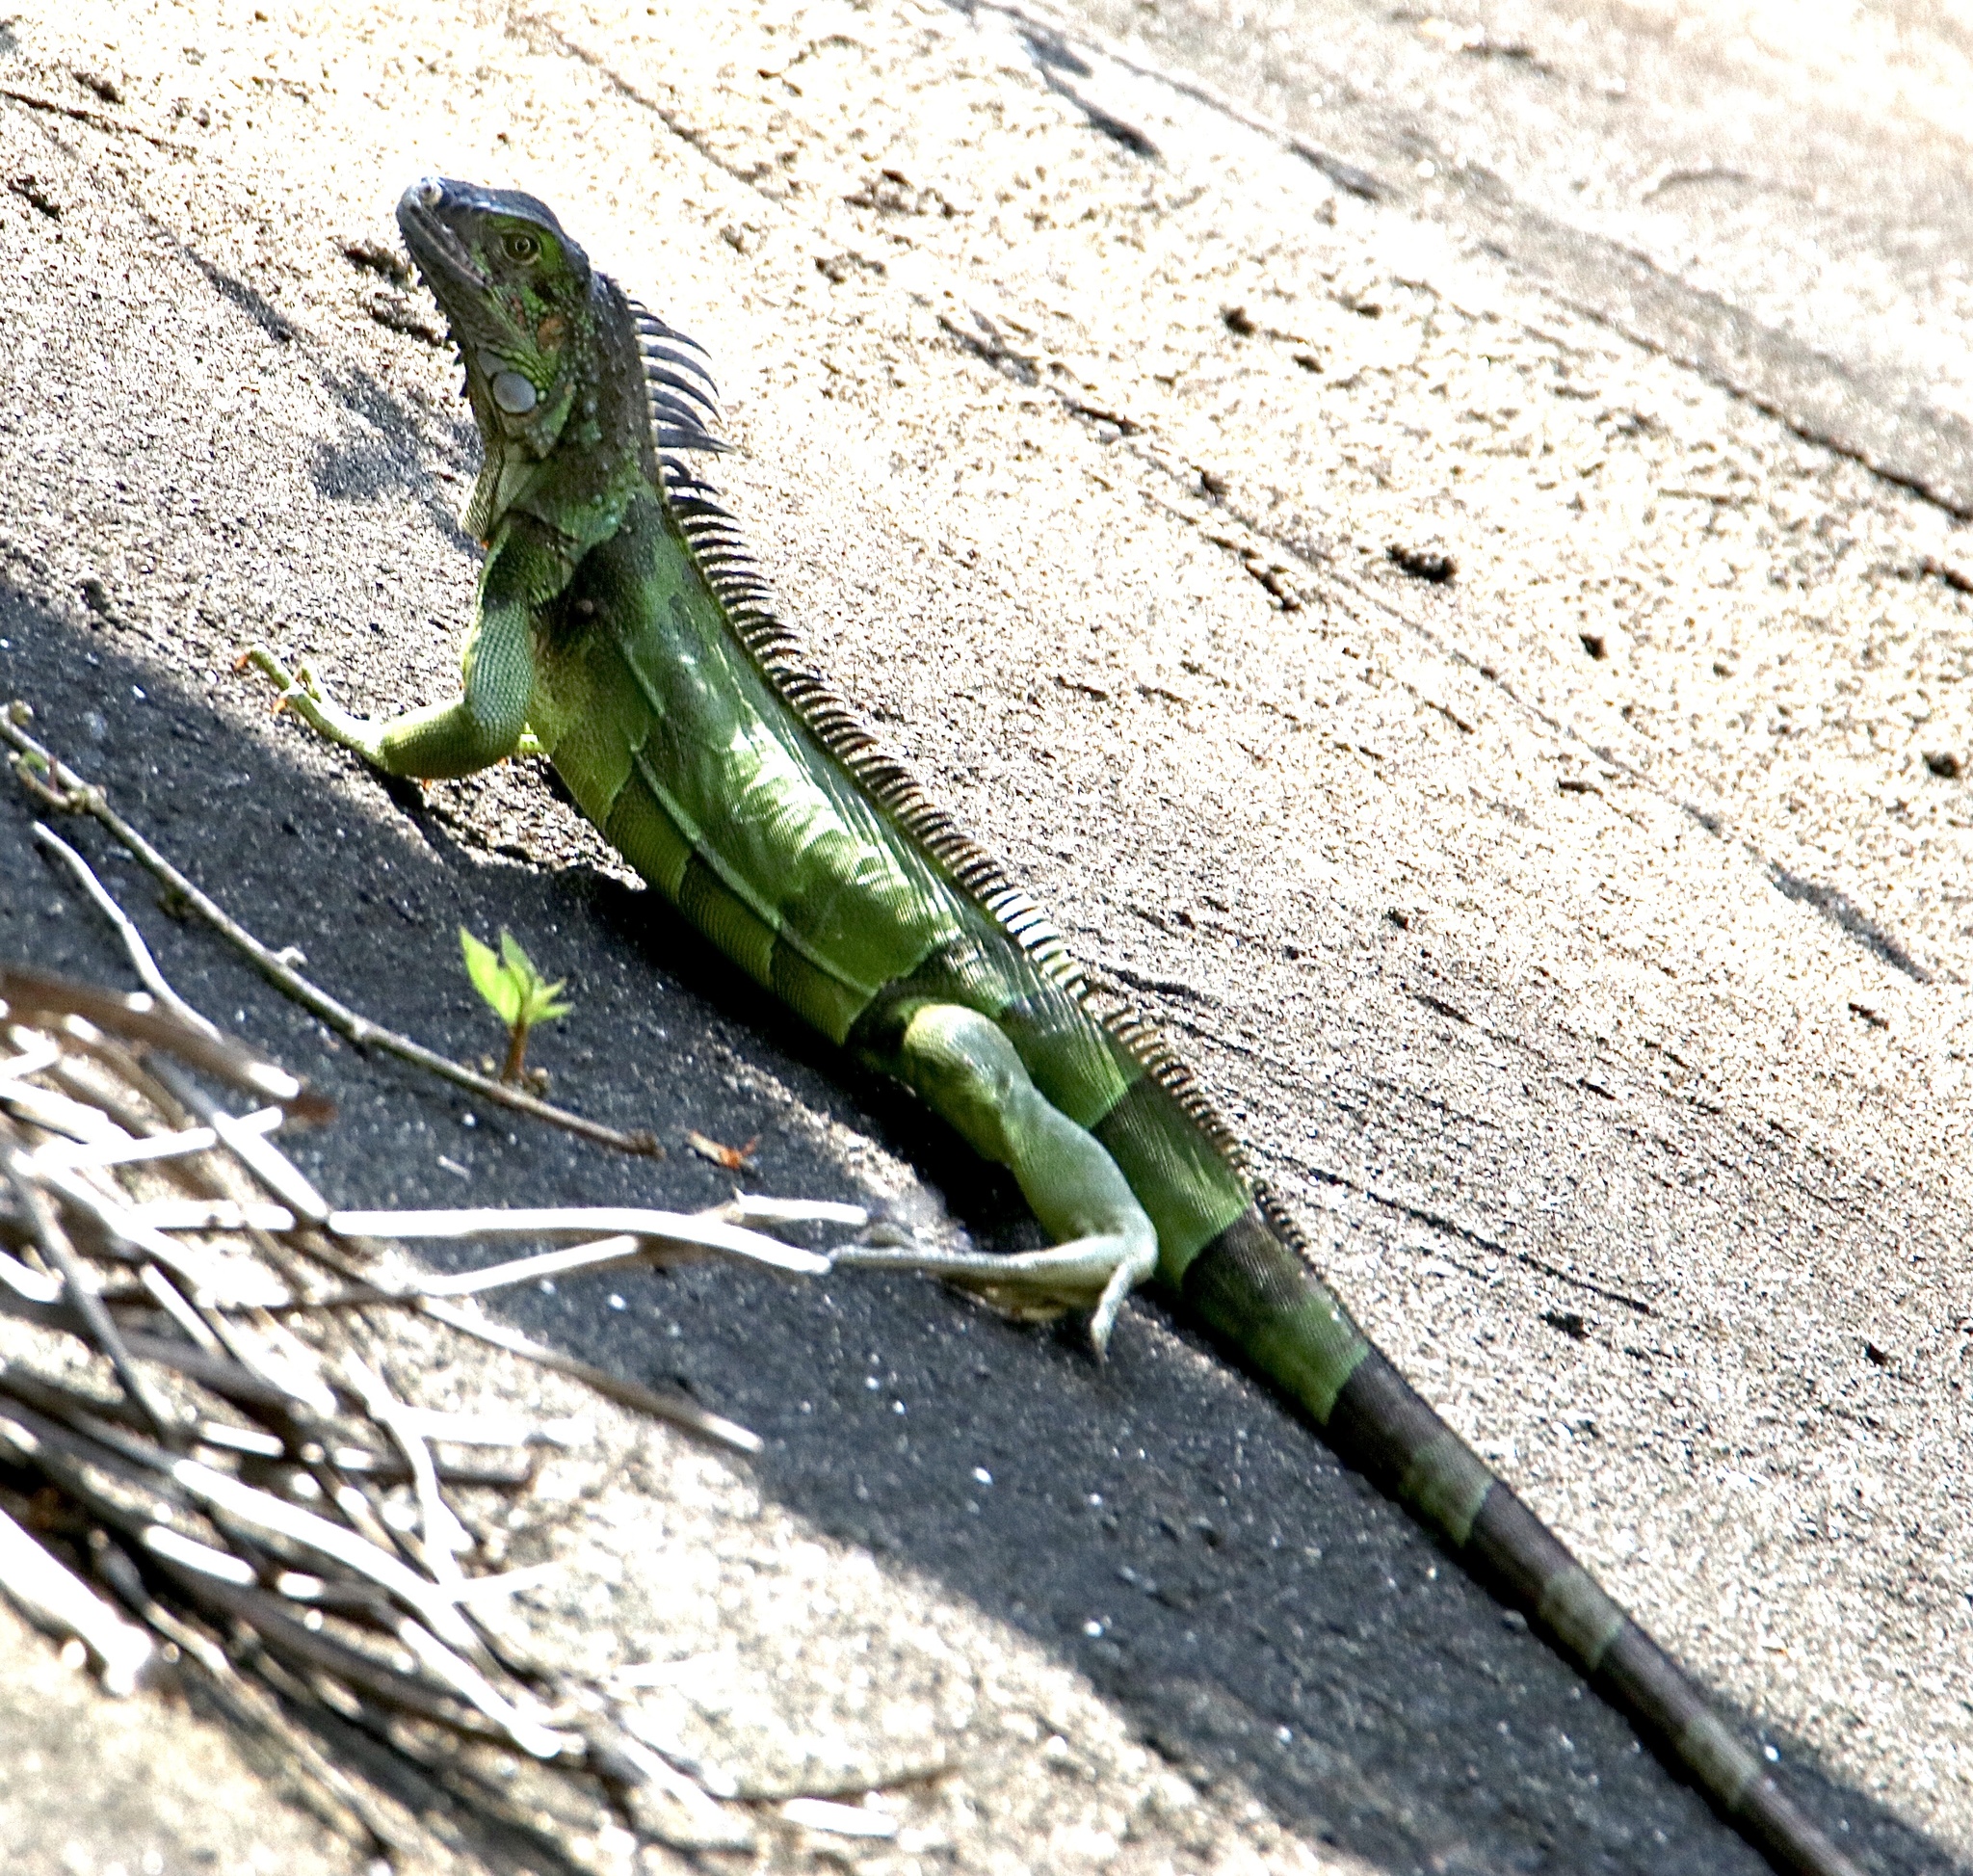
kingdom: Animalia
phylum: Chordata
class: Squamata
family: Iguanidae
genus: Iguana
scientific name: Iguana iguana
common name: Green iguana
